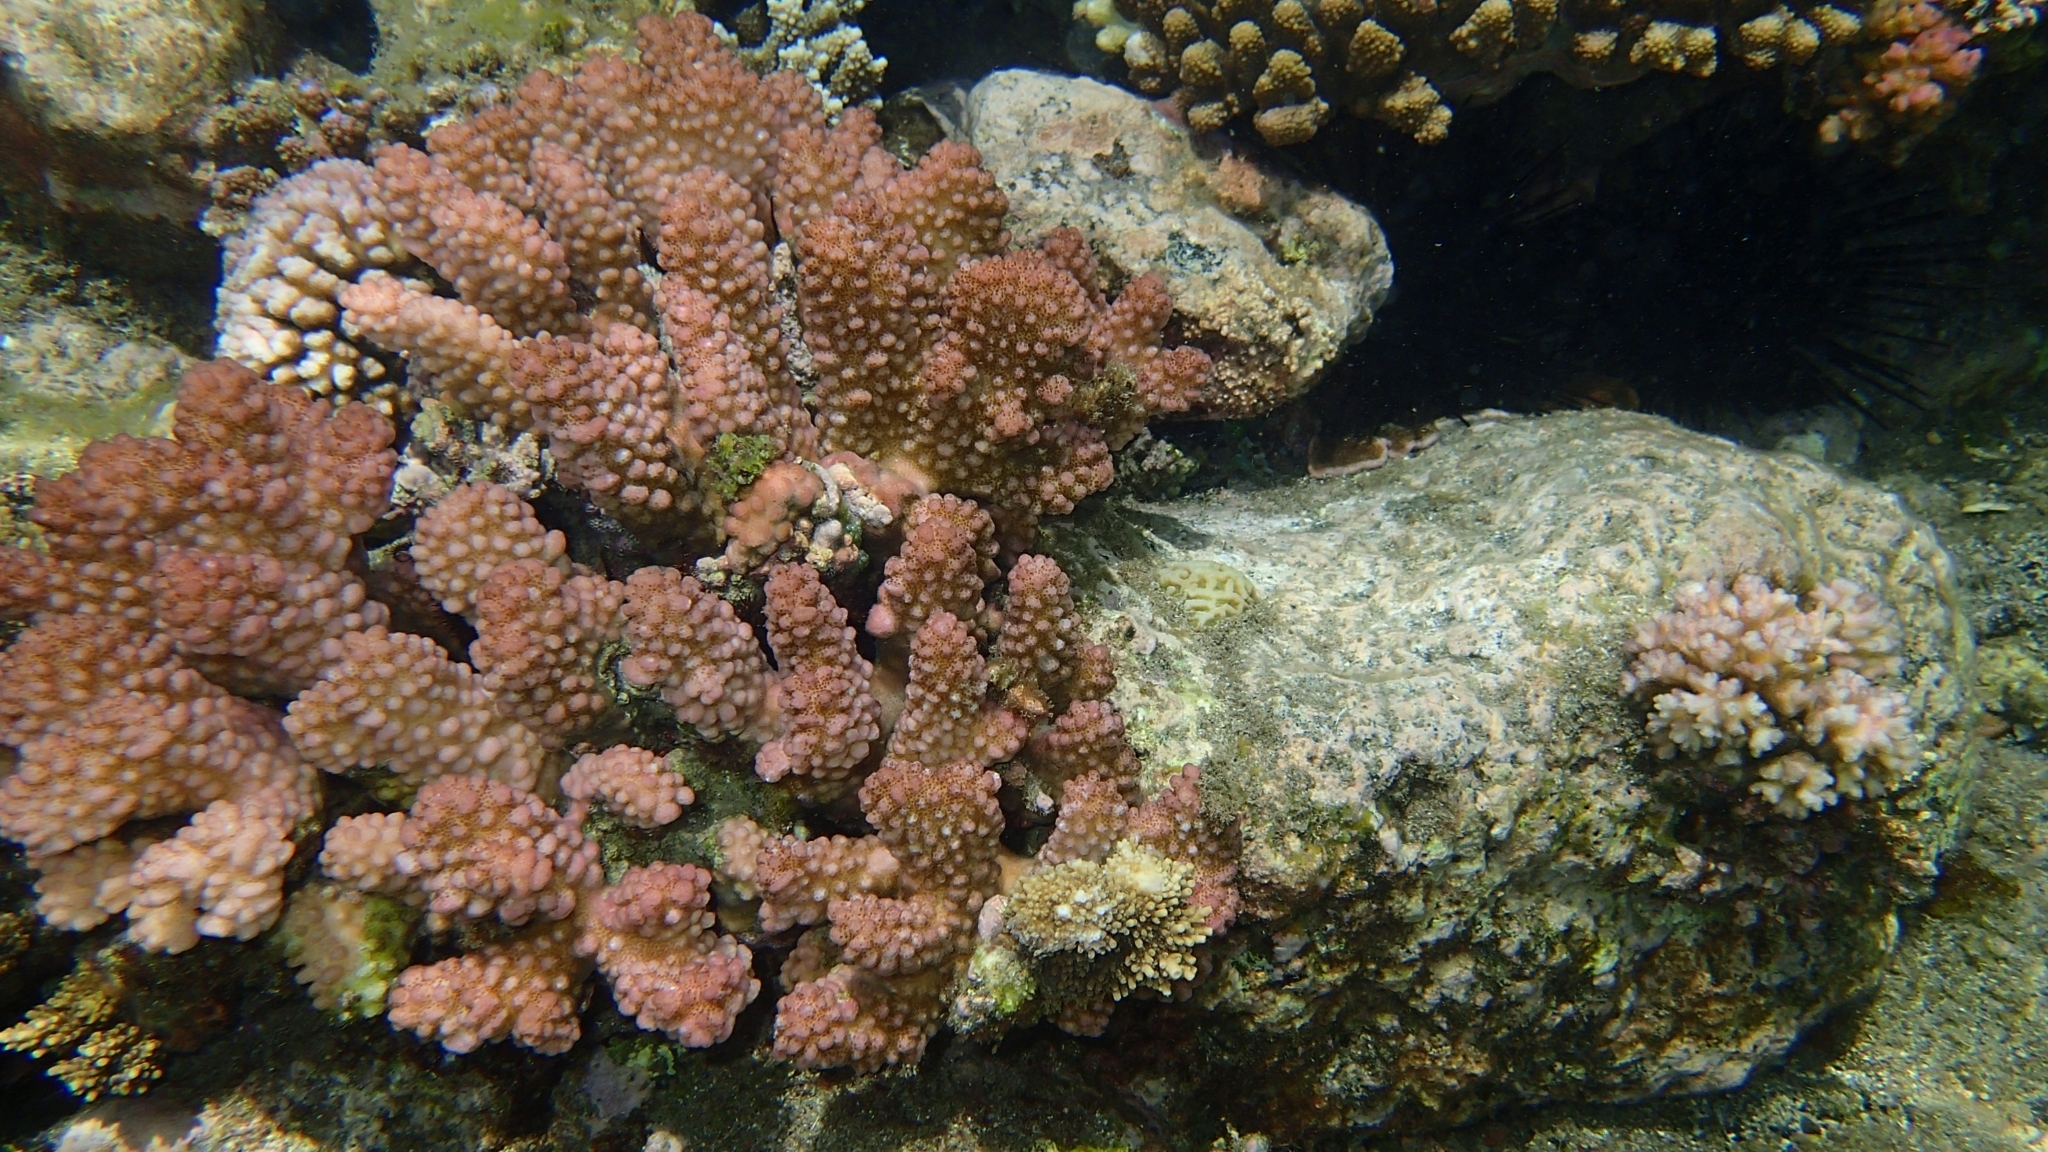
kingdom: Animalia
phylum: Cnidaria
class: Anthozoa
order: Scleractinia
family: Pocilloporidae
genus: Pocillopora
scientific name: Pocillopora verrucosa
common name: Cauliflower coral
